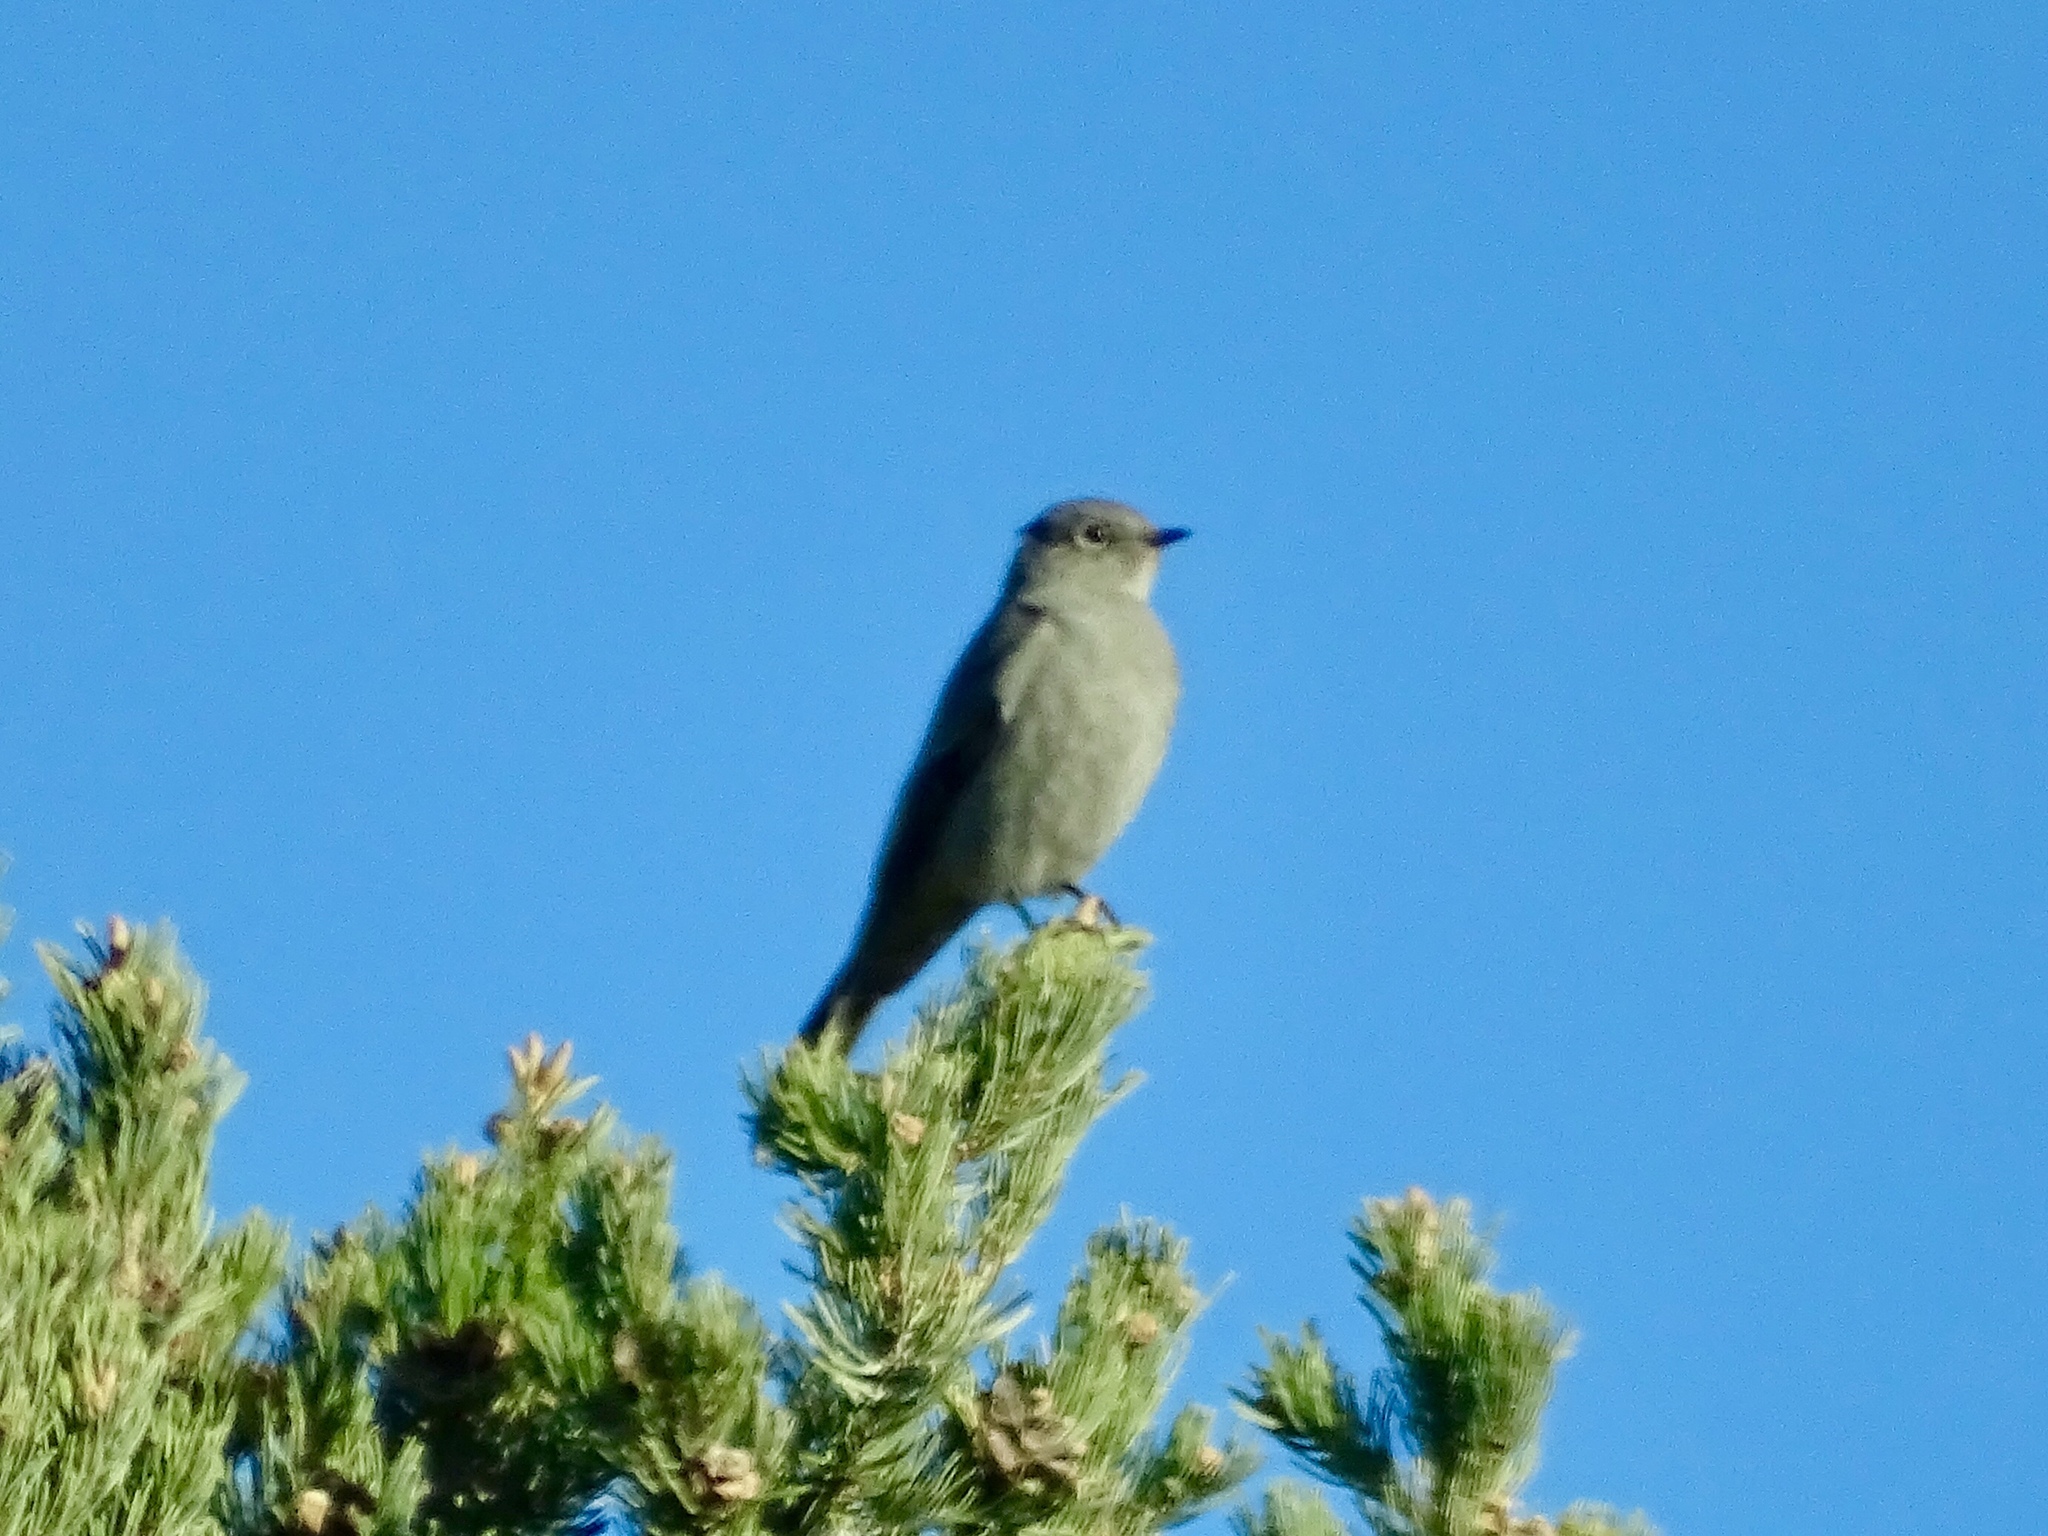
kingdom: Animalia
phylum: Chordata
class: Aves
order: Passeriformes
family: Turdidae
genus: Myadestes
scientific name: Myadestes townsendi
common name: Townsend's solitaire
